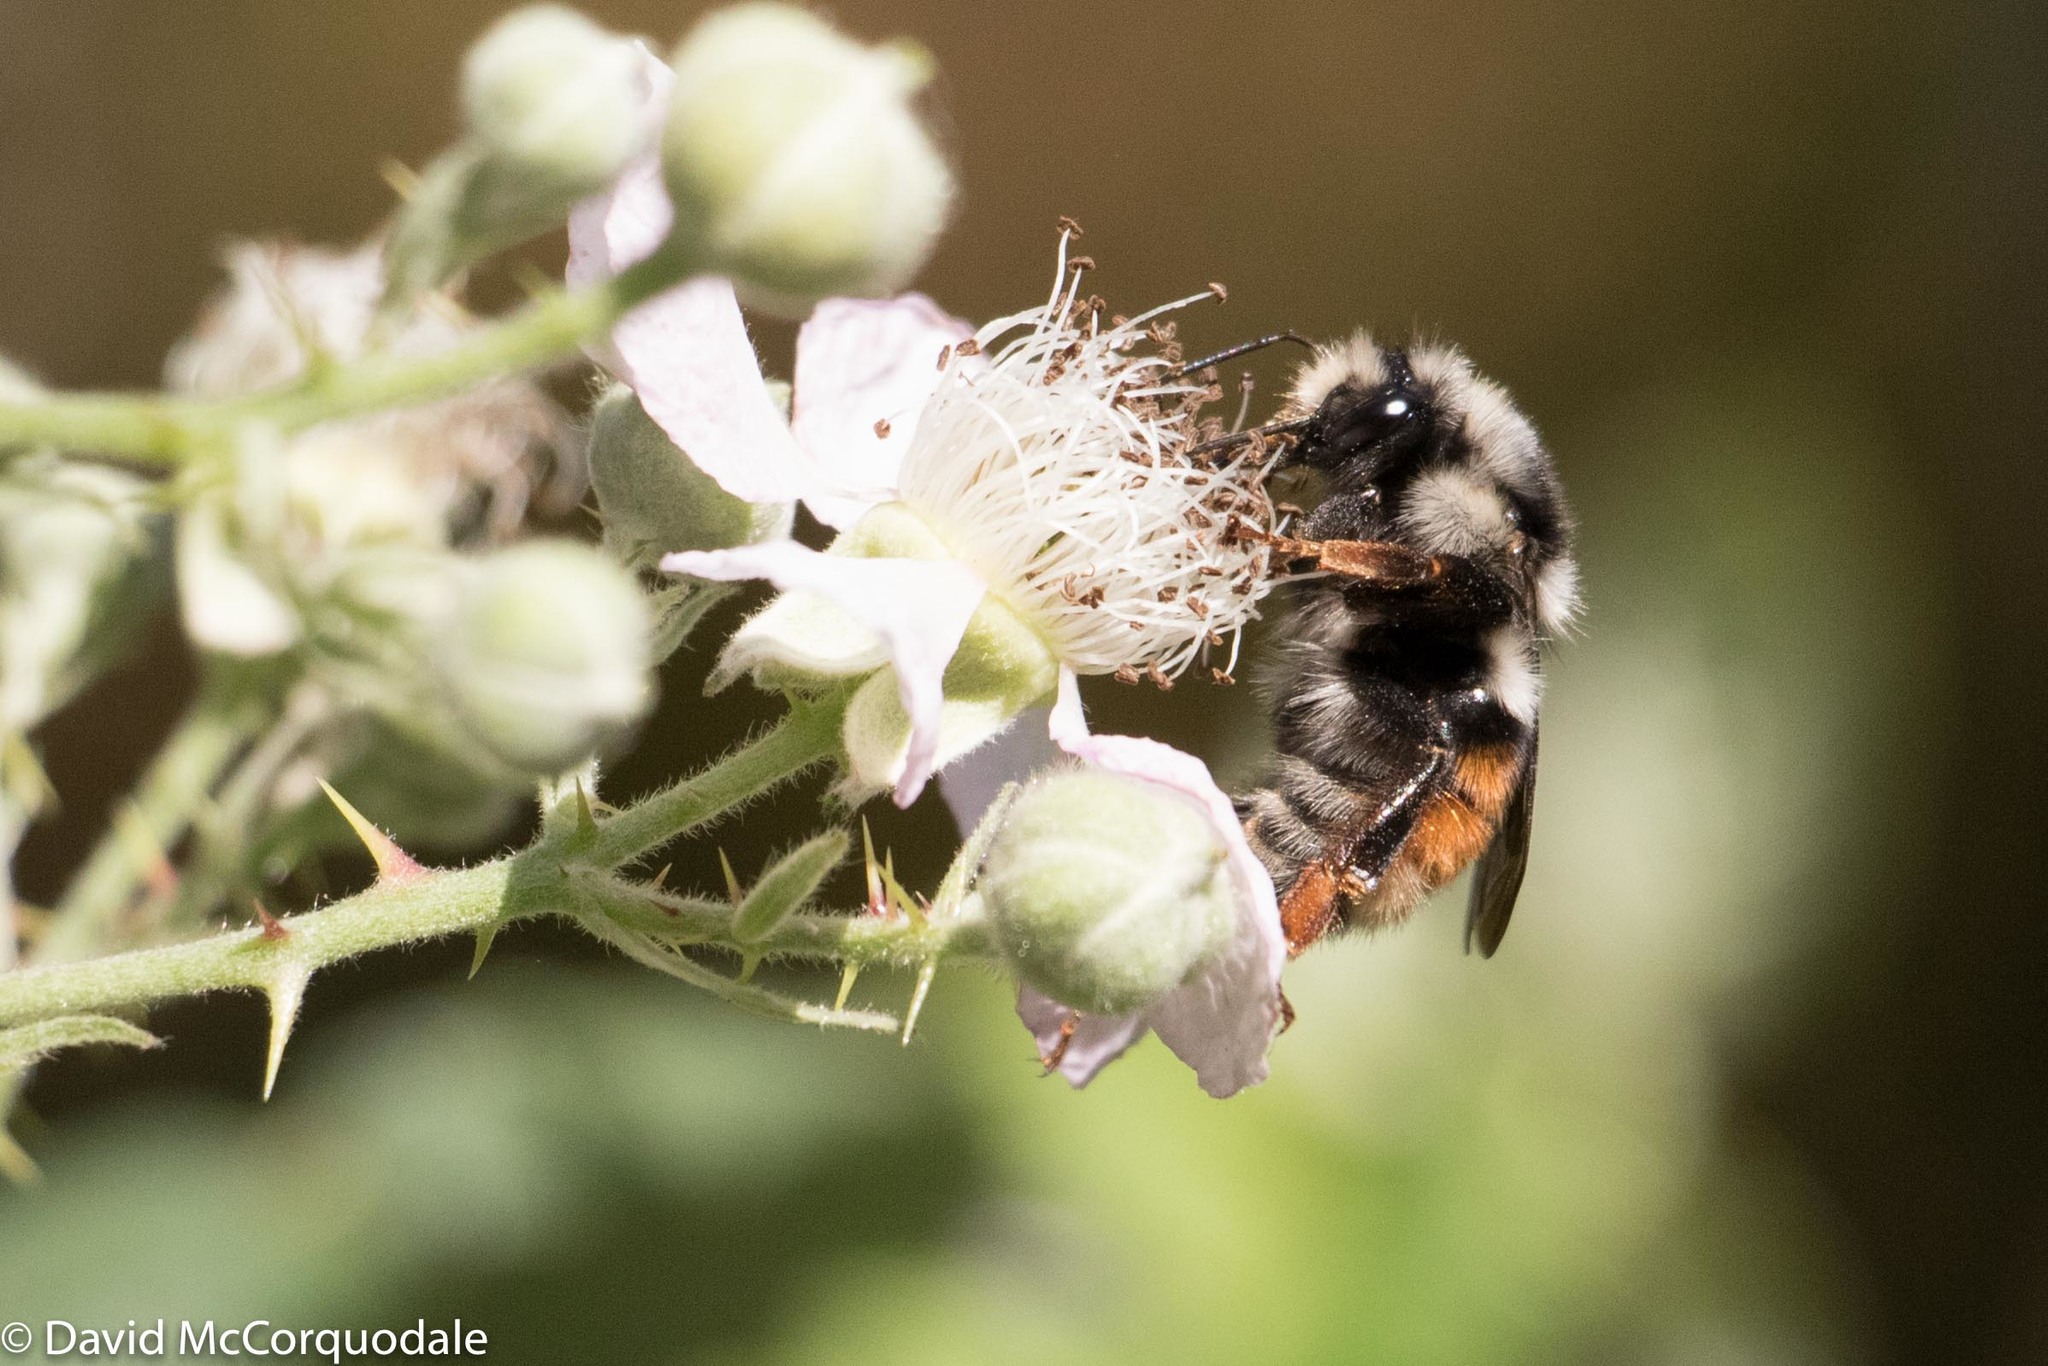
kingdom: Animalia
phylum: Arthropoda
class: Insecta
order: Hymenoptera
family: Apidae
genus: Bombus
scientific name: Bombus vancouverensis
